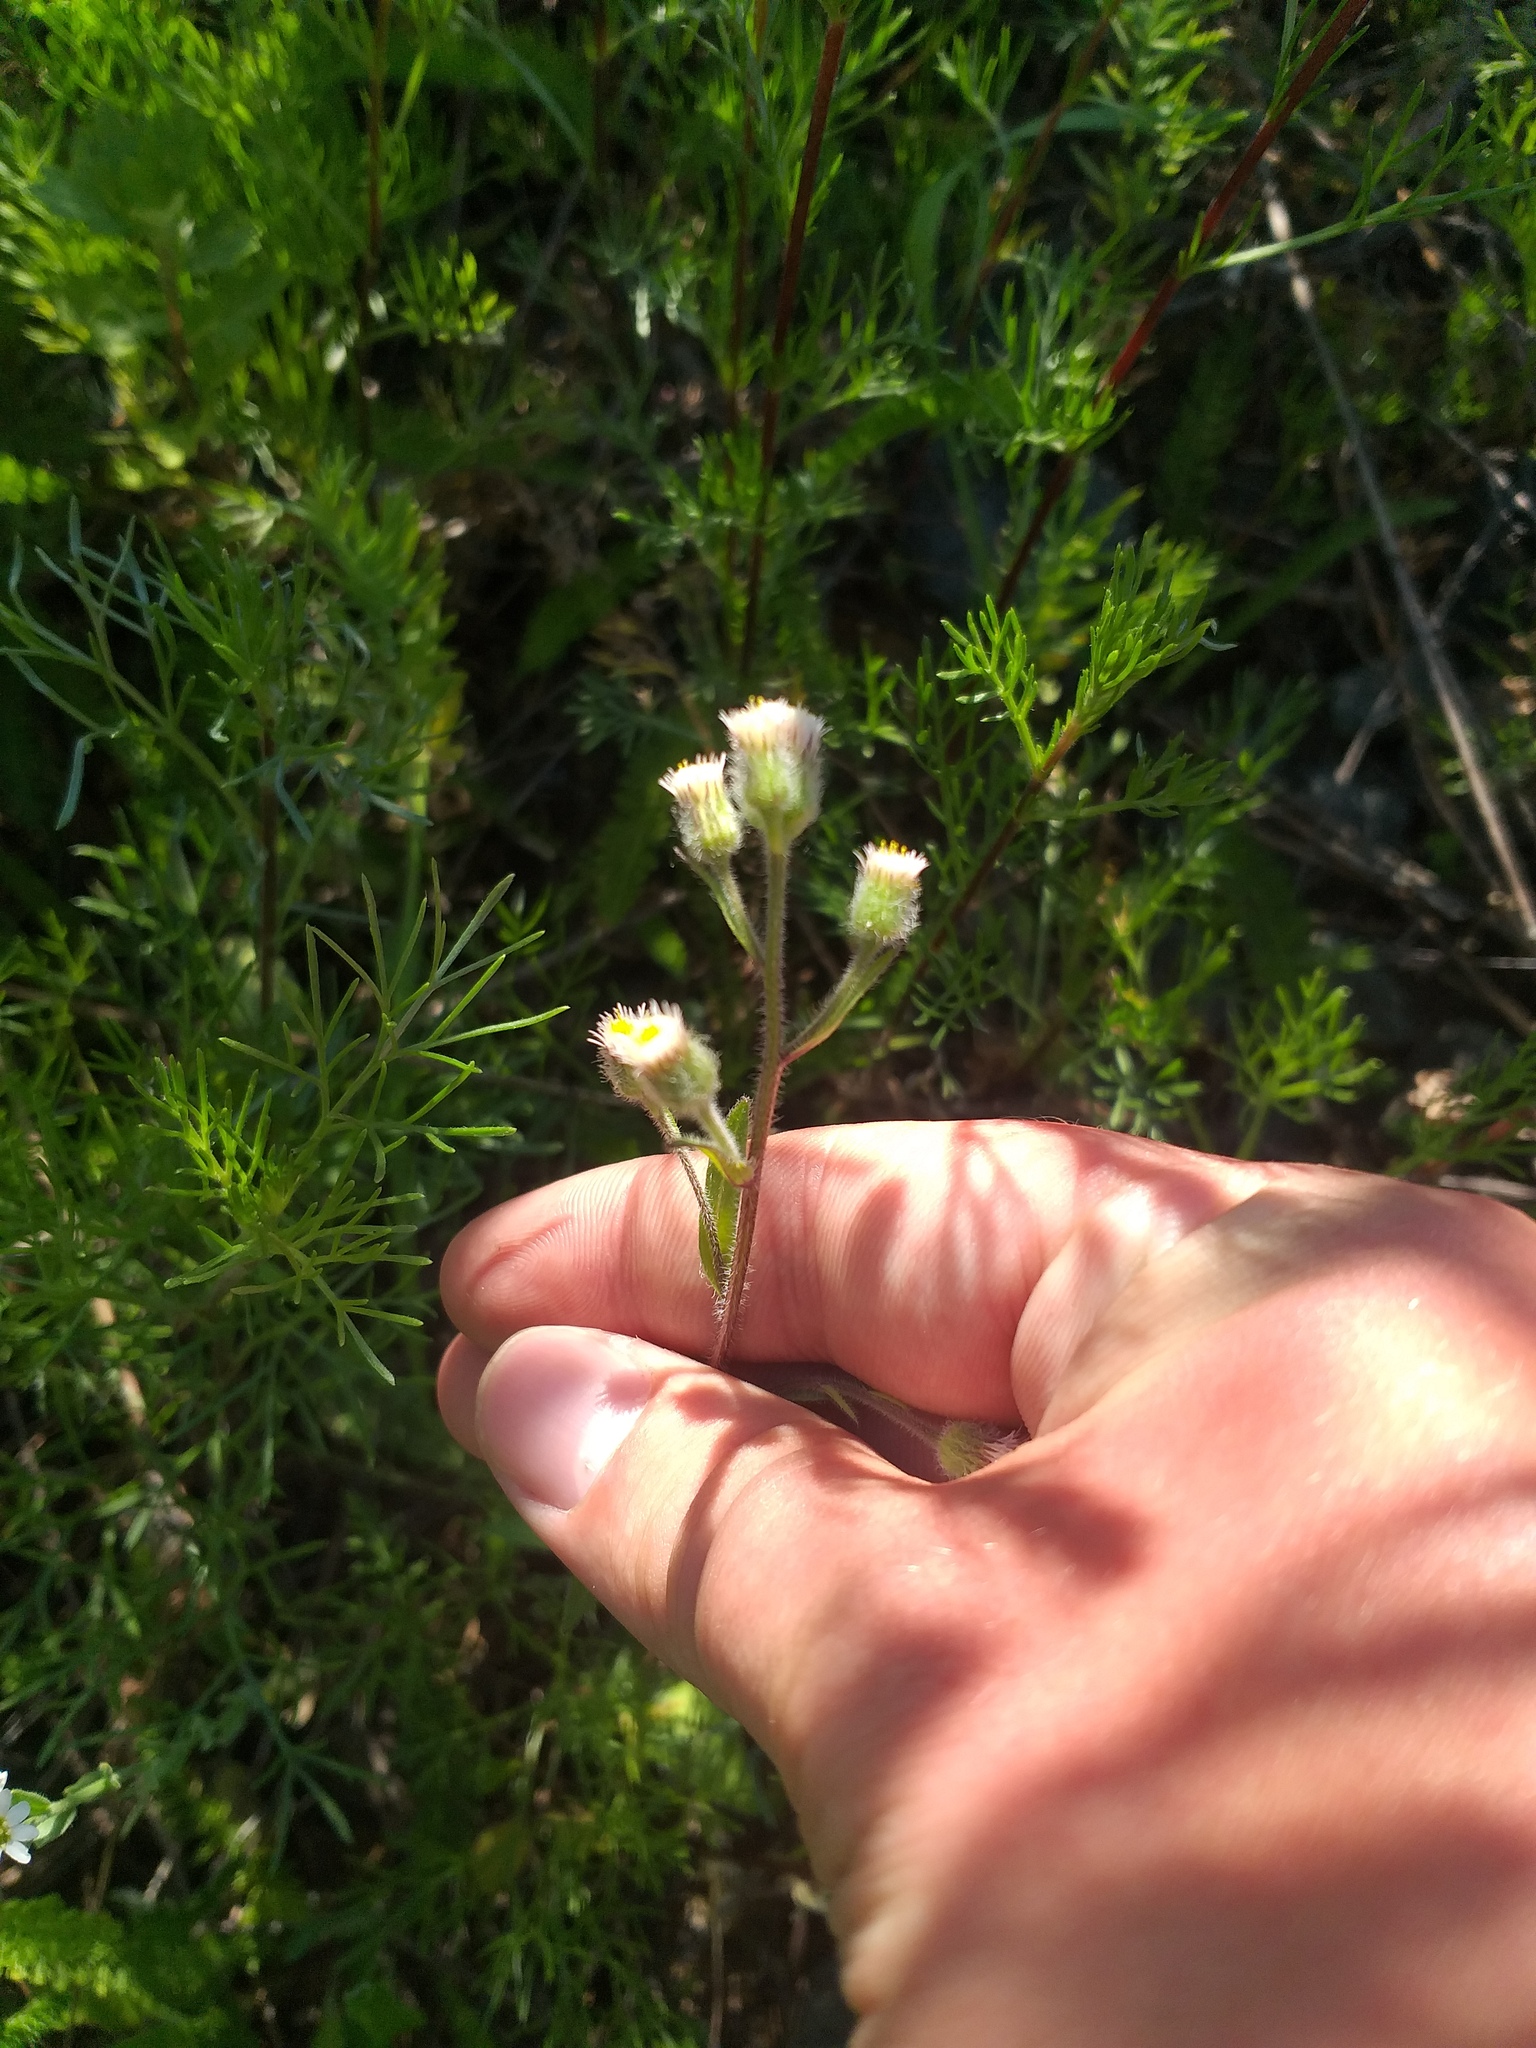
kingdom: Plantae
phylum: Tracheophyta
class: Magnoliopsida
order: Asterales
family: Asteraceae
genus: Erigeron
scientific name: Erigeron acris
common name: Blue fleabane
